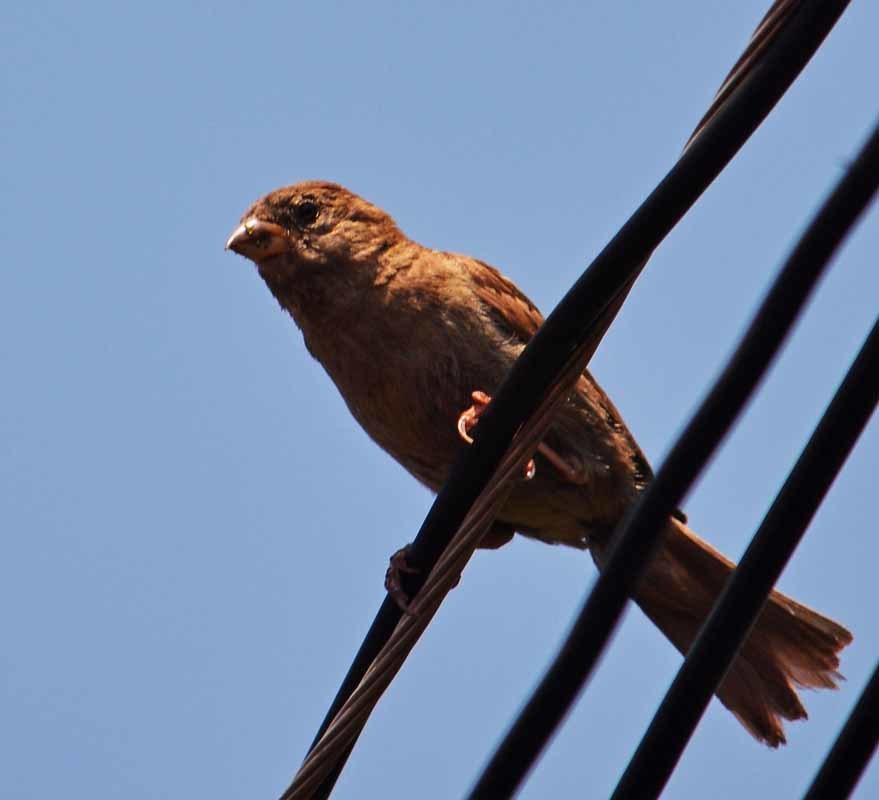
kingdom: Animalia
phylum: Chordata
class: Aves
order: Passeriformes
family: Fringillidae
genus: Haemorhous
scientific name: Haemorhous mexicanus
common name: House finch
